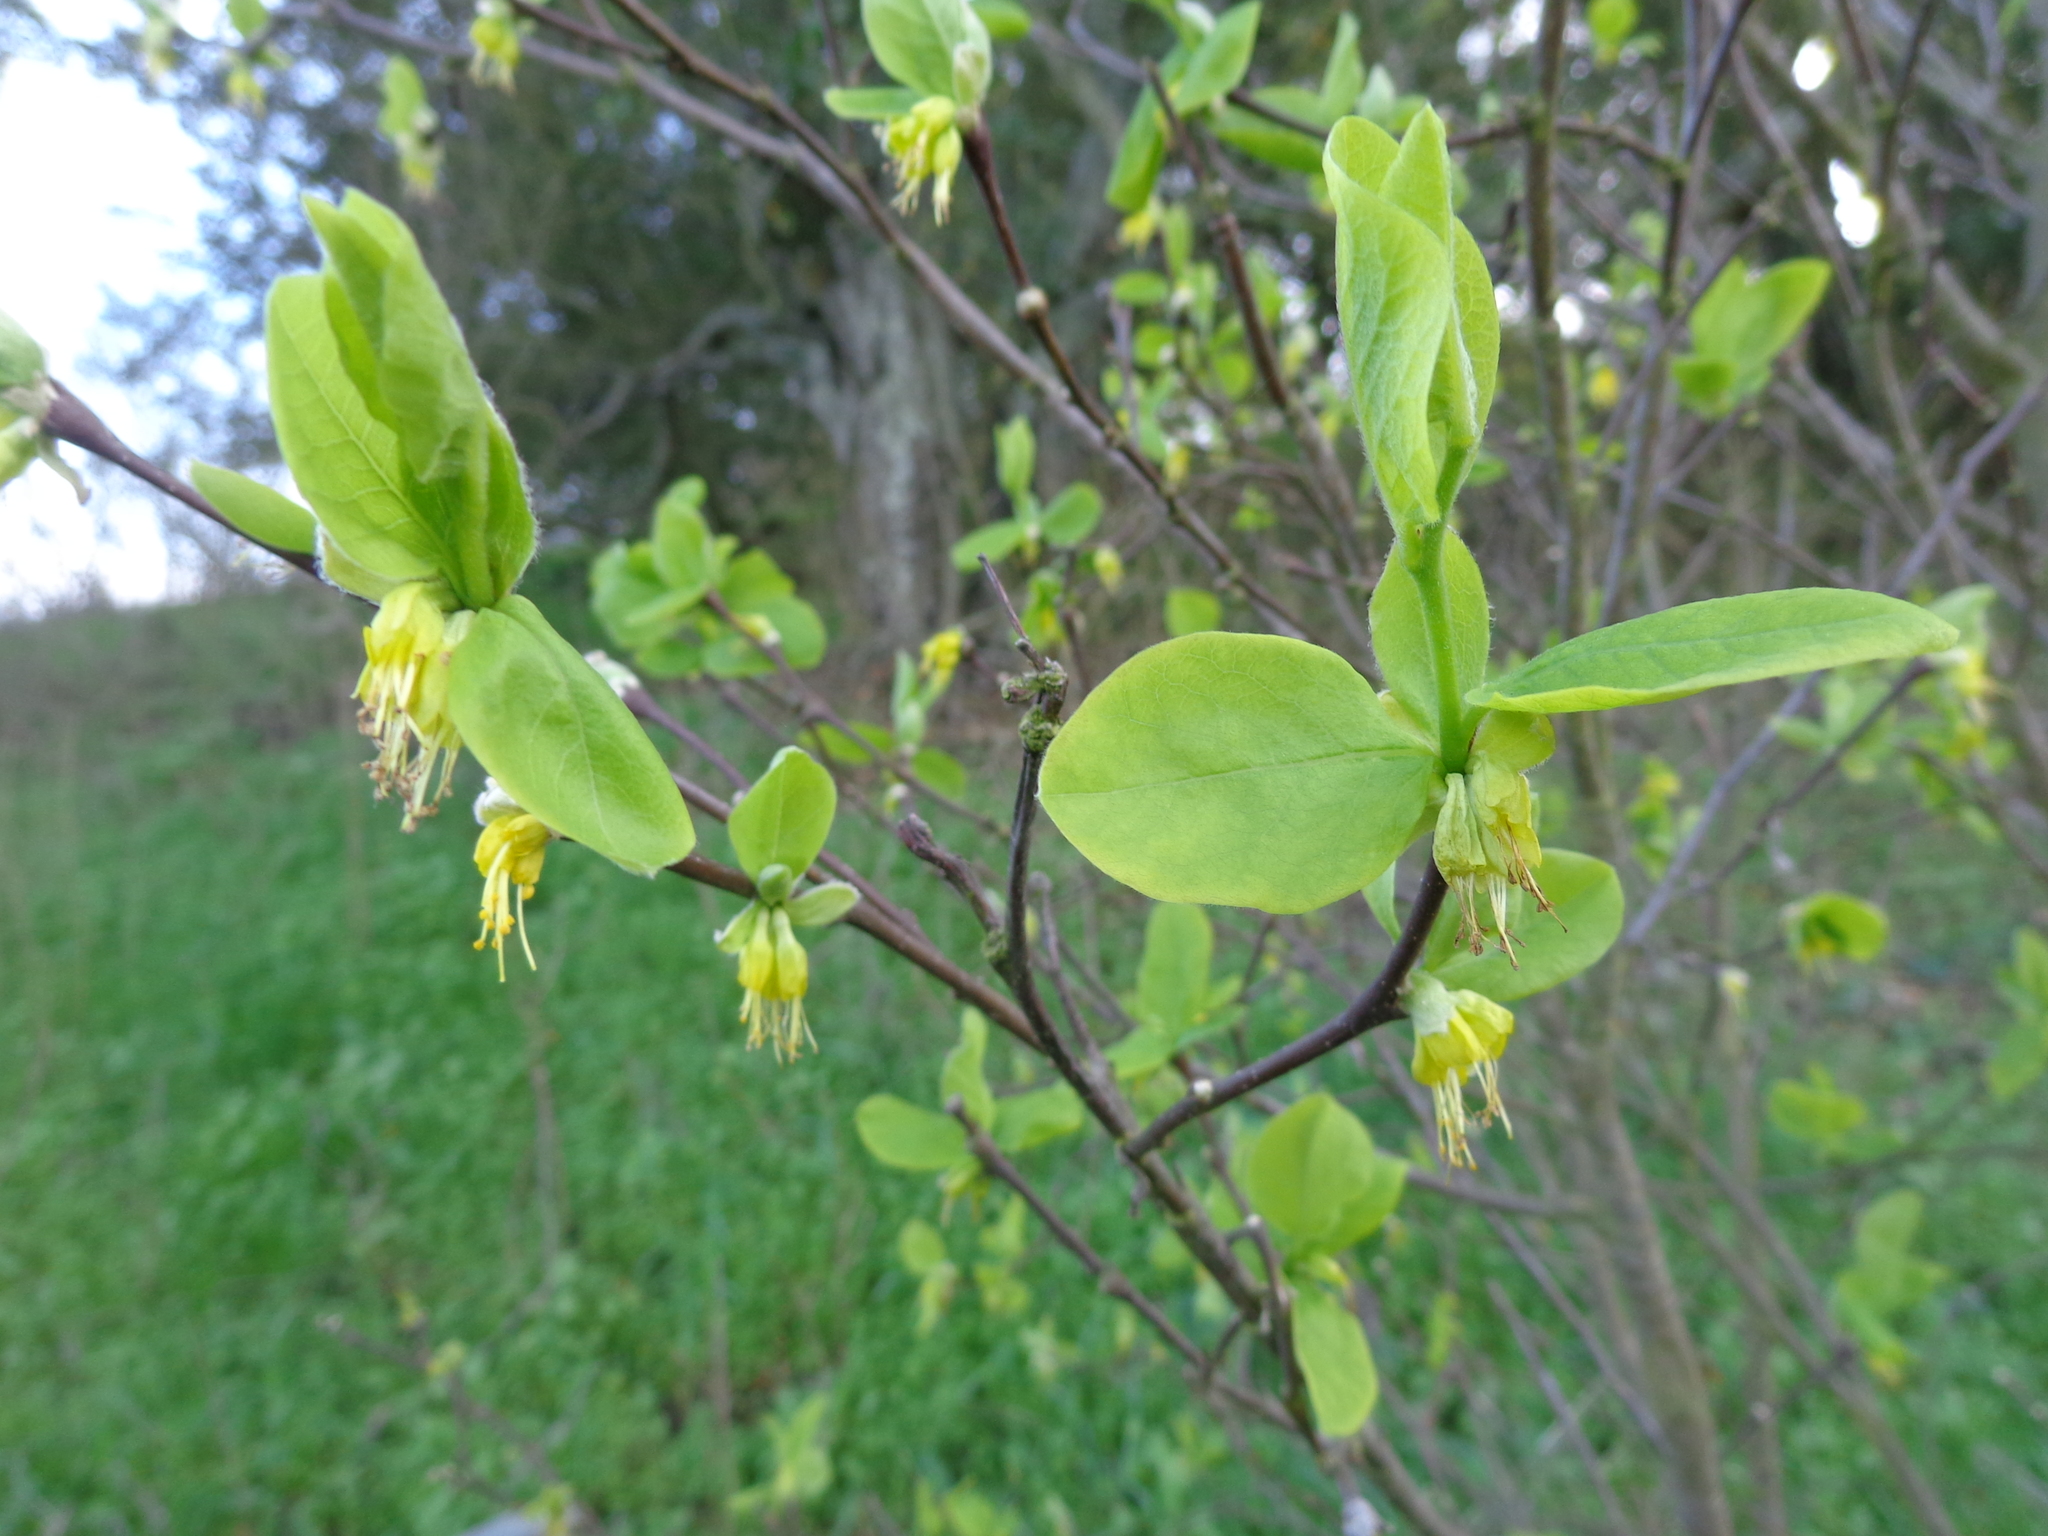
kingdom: Plantae
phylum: Tracheophyta
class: Magnoliopsida
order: Malvales
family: Thymelaeaceae
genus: Dirca
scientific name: Dirca occidentalis
